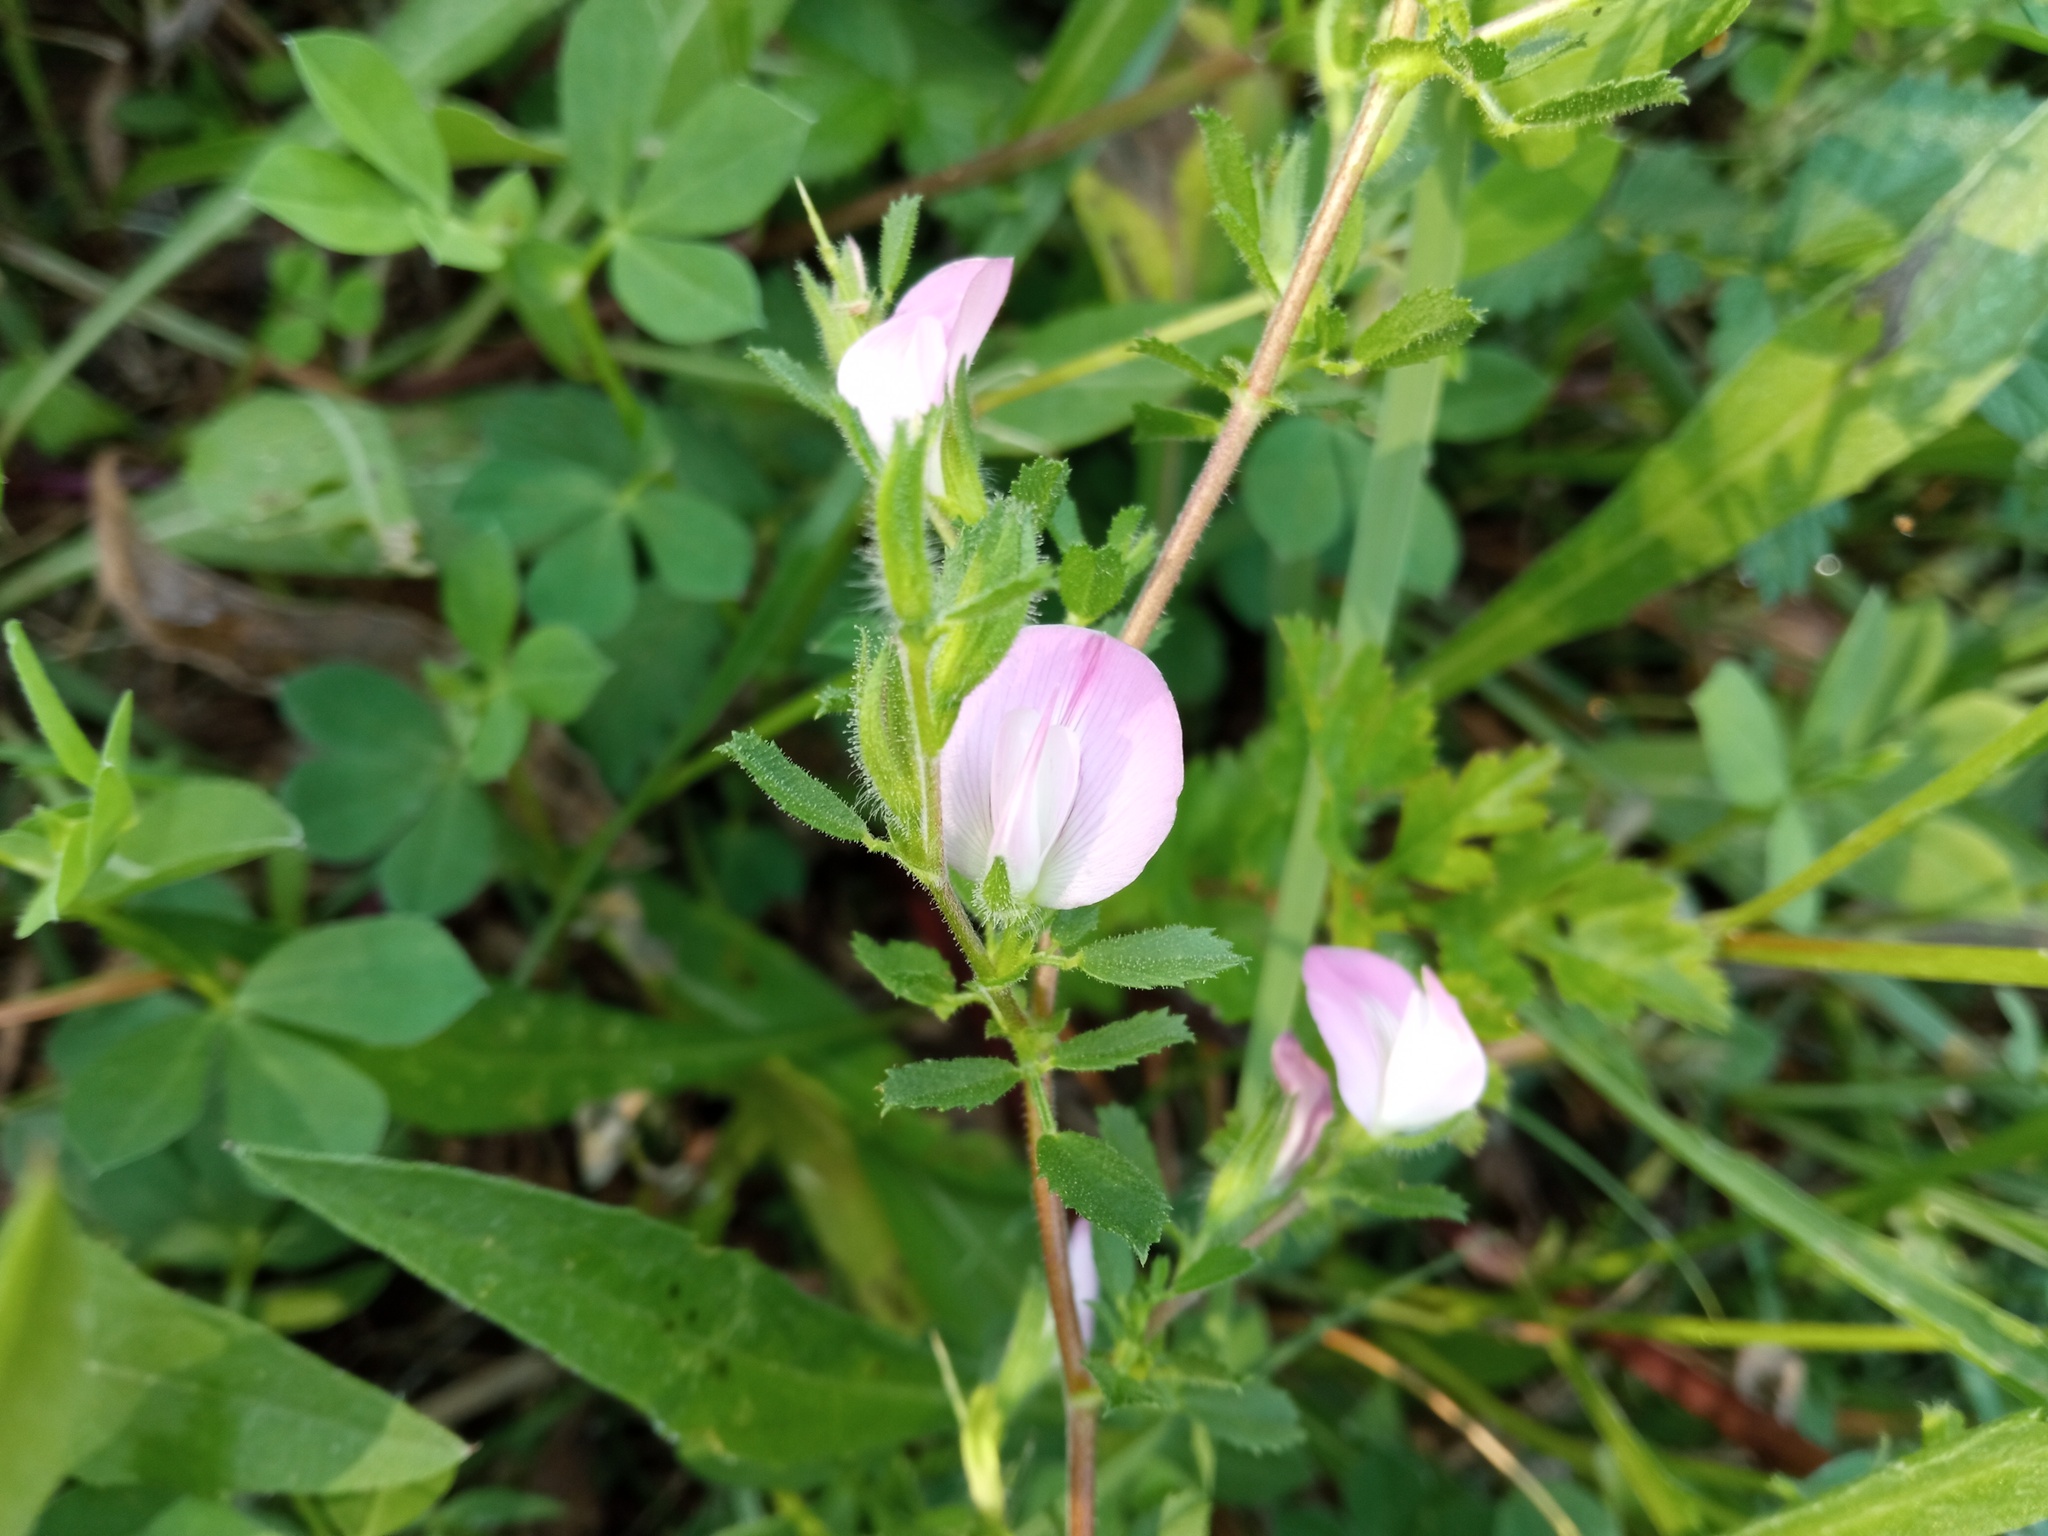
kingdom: Plantae
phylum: Tracheophyta
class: Magnoliopsida
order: Fabales
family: Fabaceae
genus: Ononis
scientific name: Ononis spinosa
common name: Spiny restharrow
